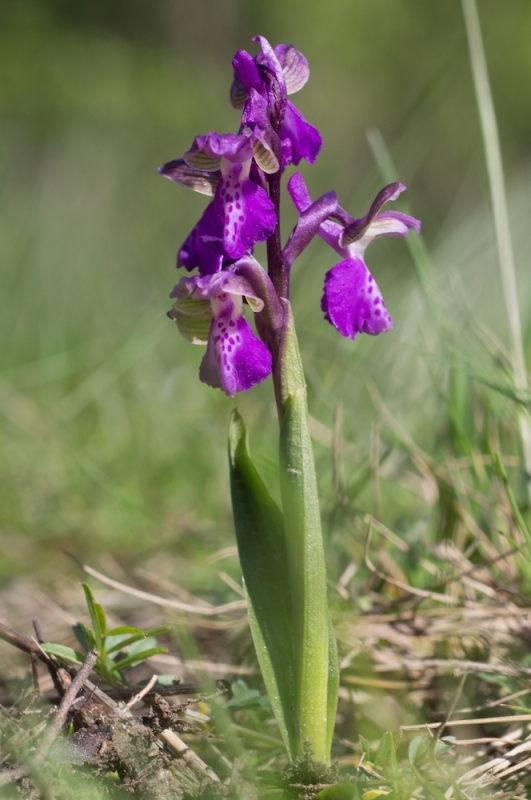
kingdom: Plantae
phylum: Tracheophyta
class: Liliopsida
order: Asparagales
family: Orchidaceae
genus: Anacamptis
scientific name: Anacamptis morio
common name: Green-winged orchid
